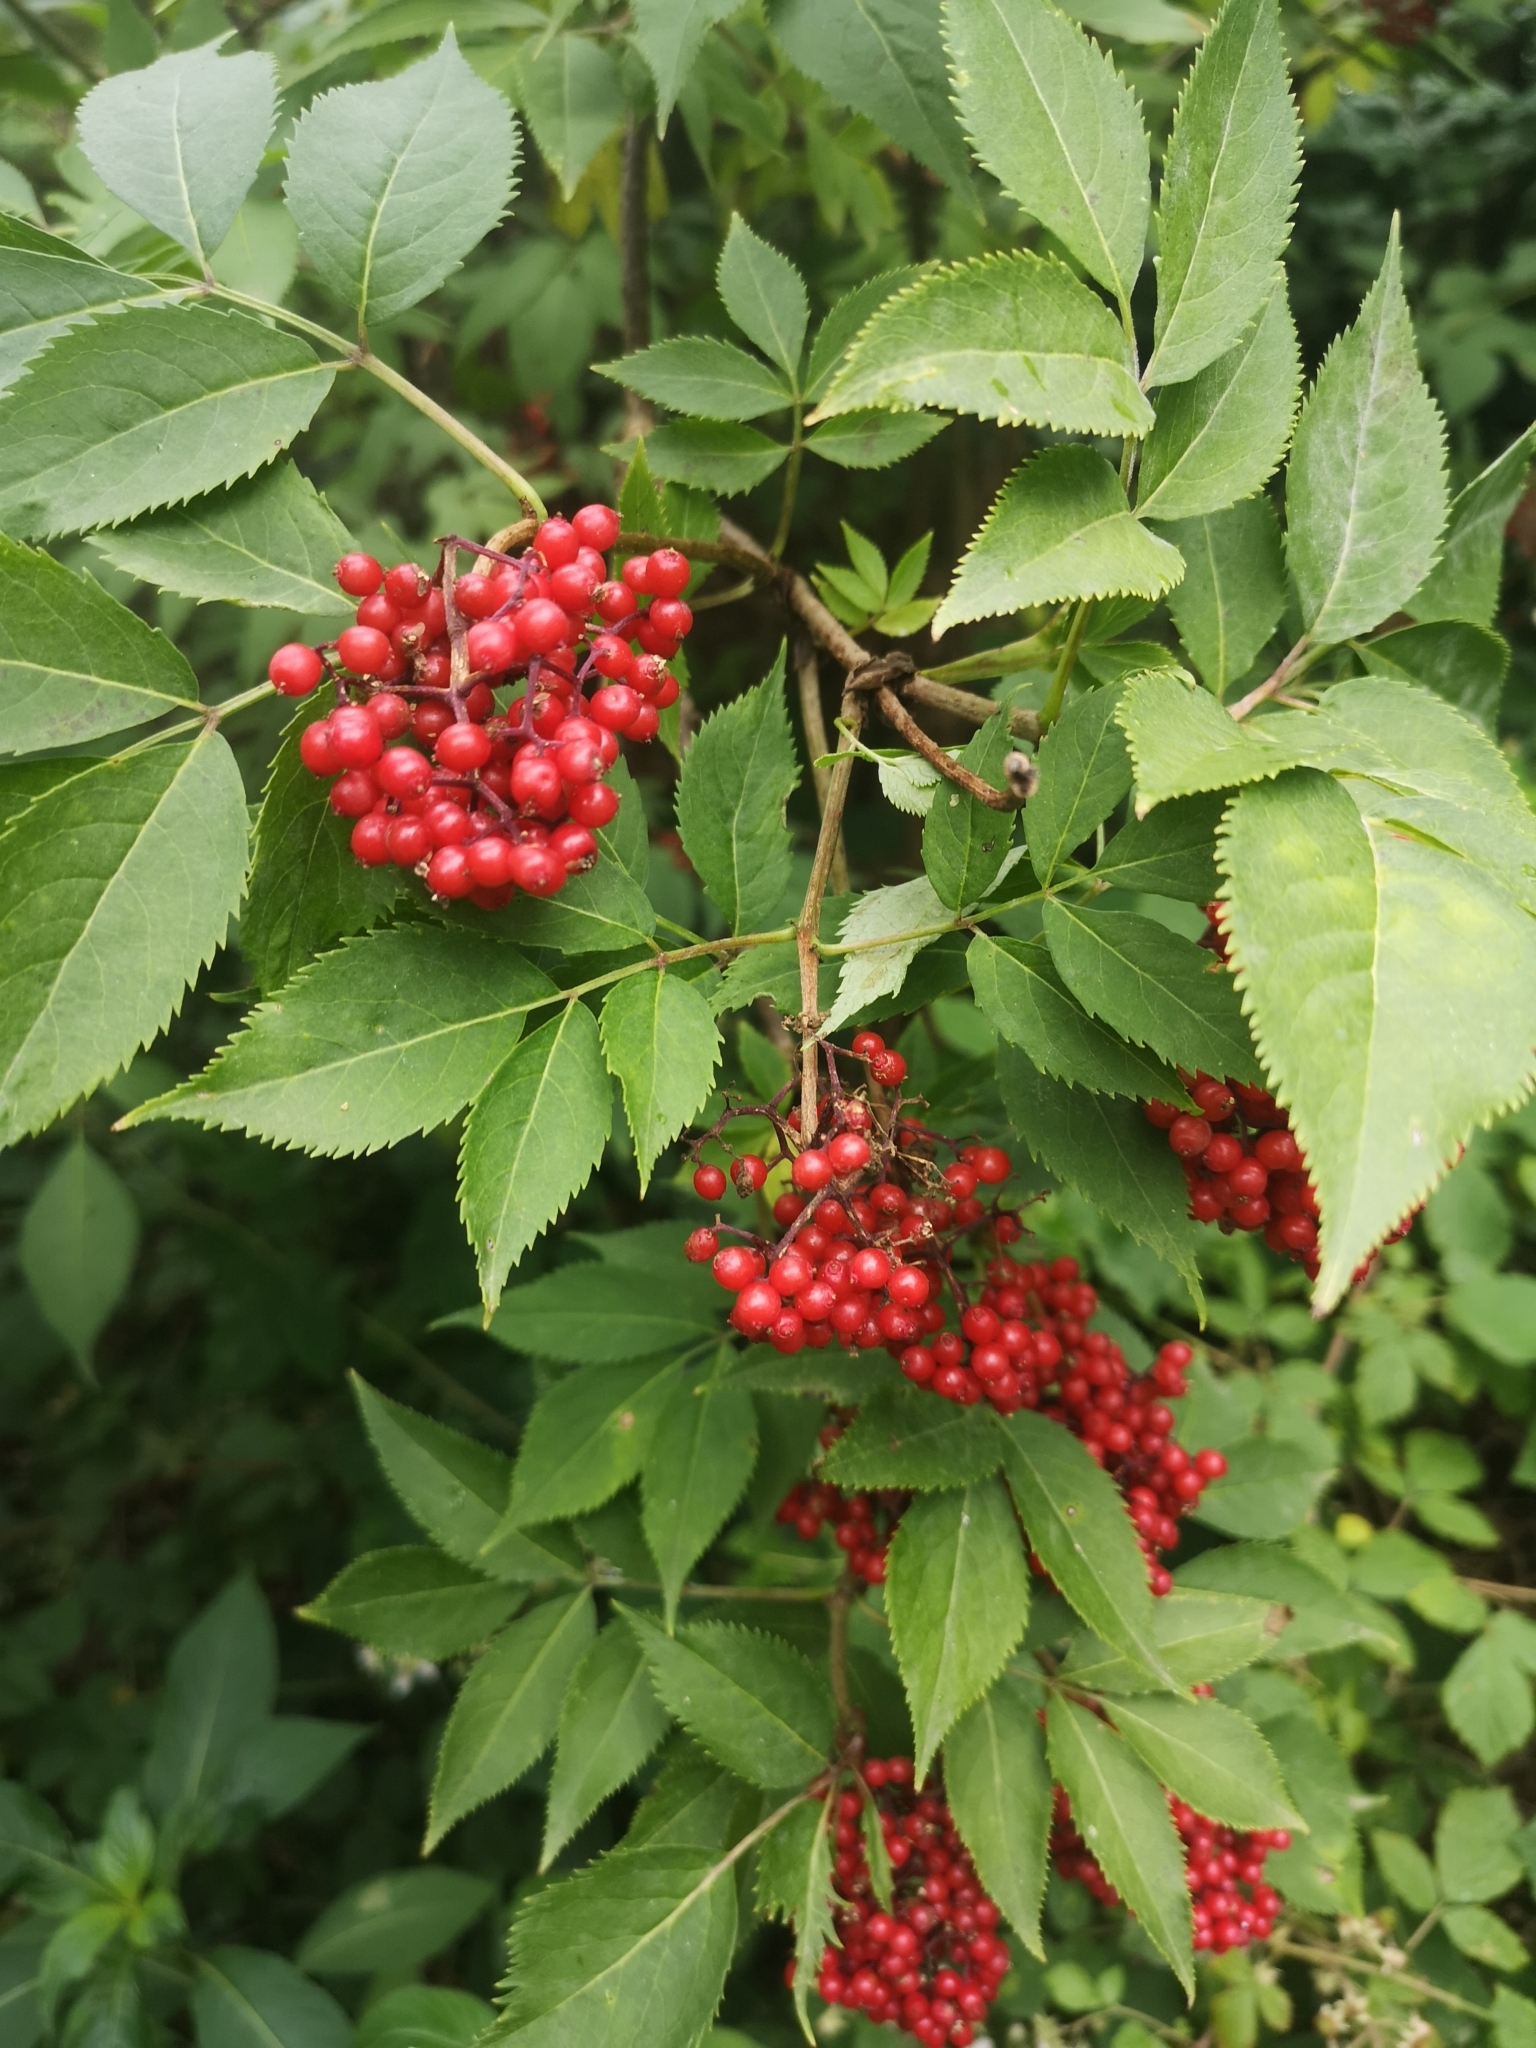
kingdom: Plantae
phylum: Tracheophyta
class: Magnoliopsida
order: Dipsacales
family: Viburnaceae
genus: Sambucus
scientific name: Sambucus racemosa
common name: Red-berried elder
